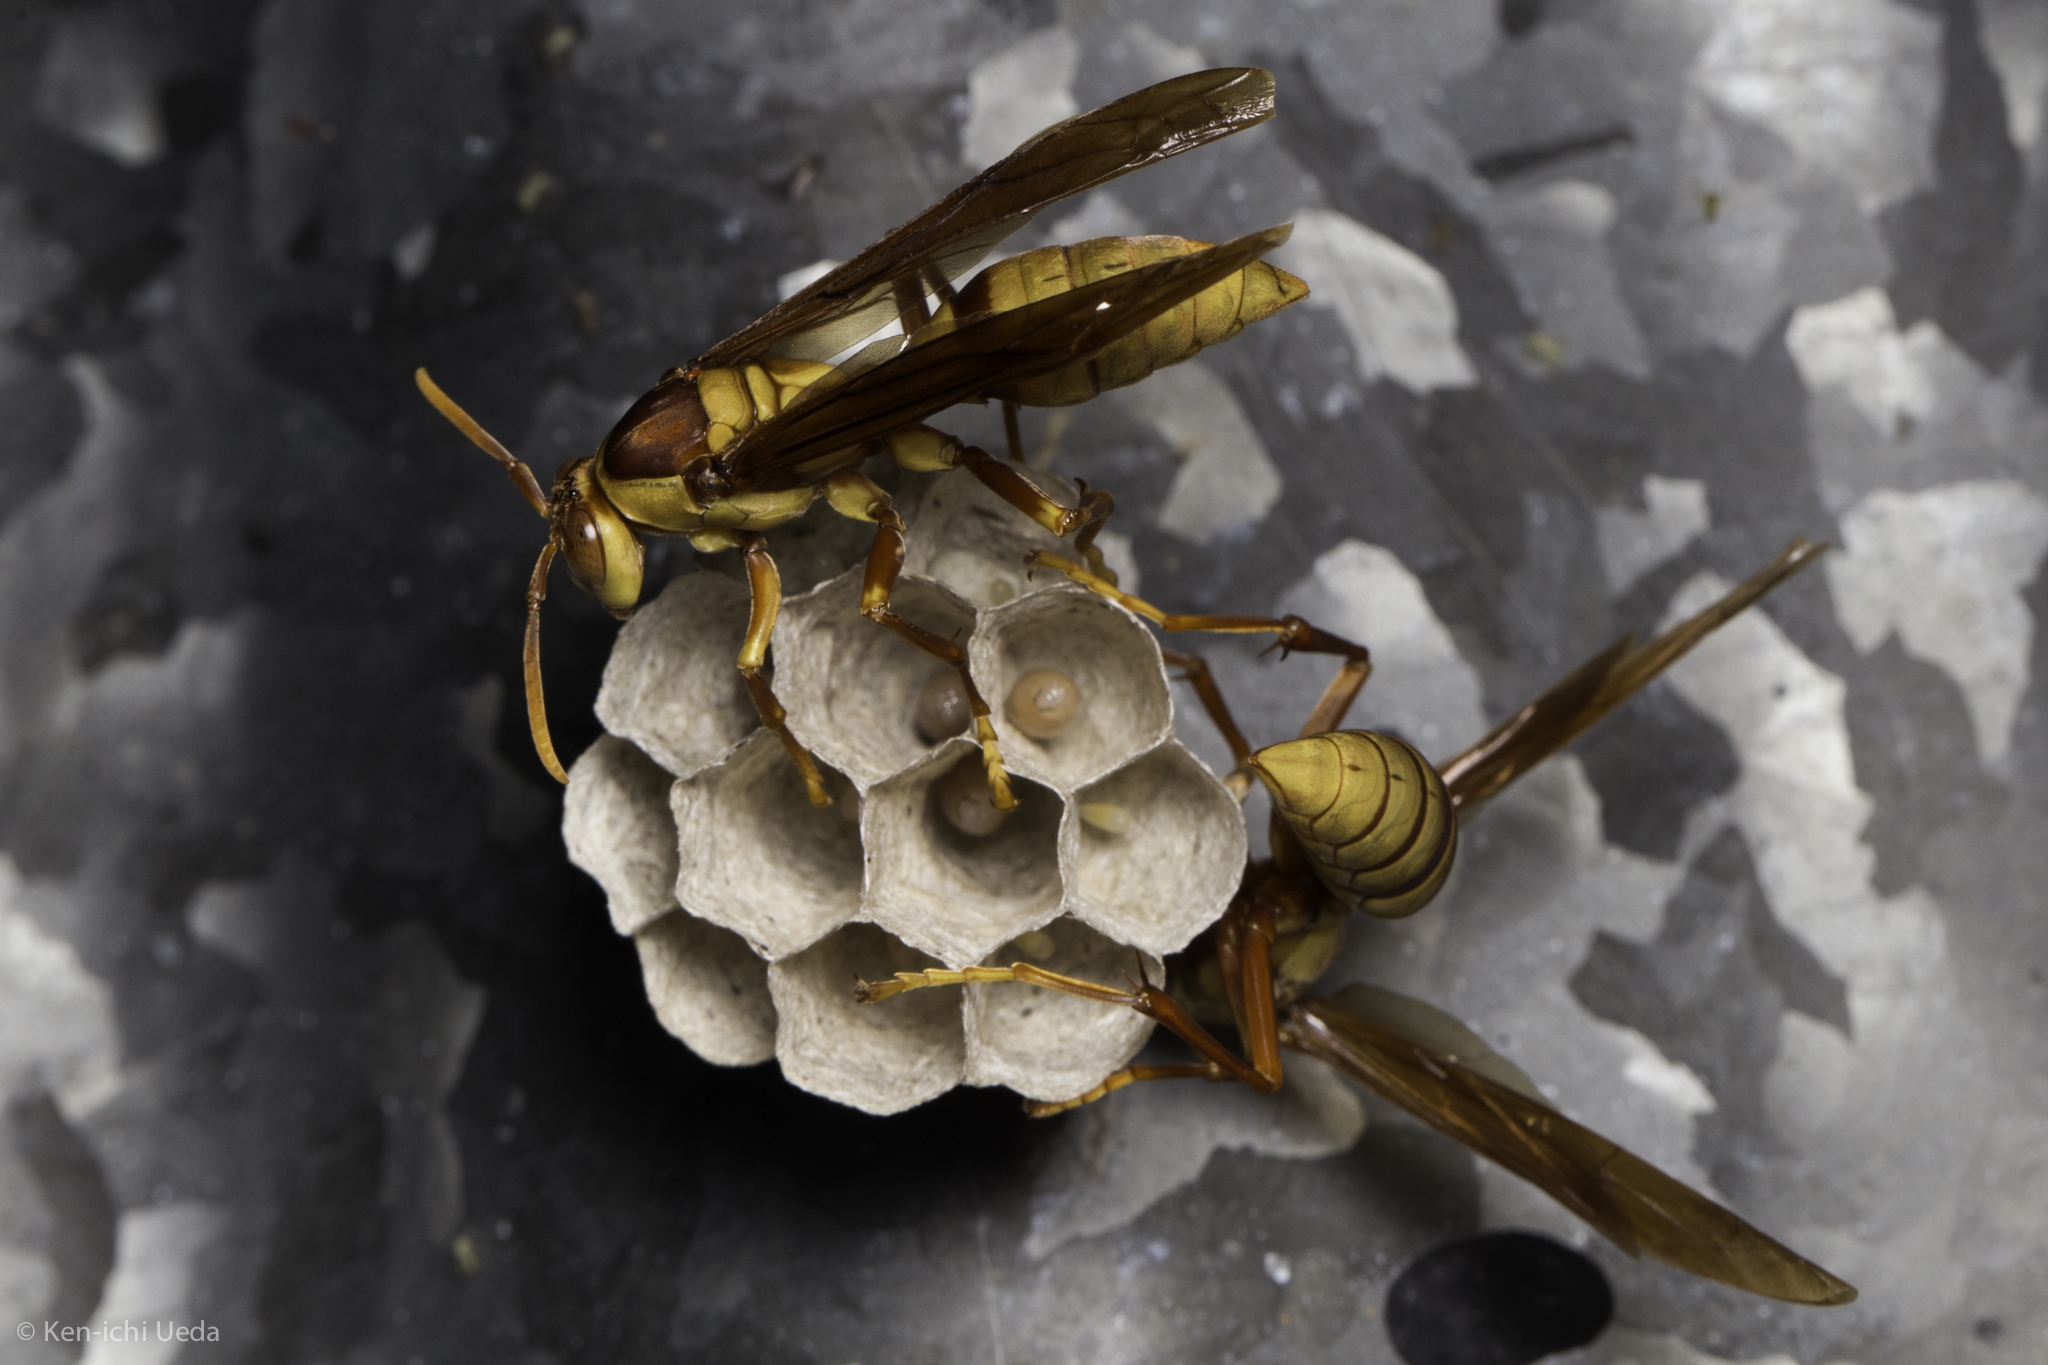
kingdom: Animalia
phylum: Arthropoda
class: Insecta
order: Hymenoptera
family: Eumenidae
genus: Polistes
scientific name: Polistes carnifex
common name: Paper wasp
